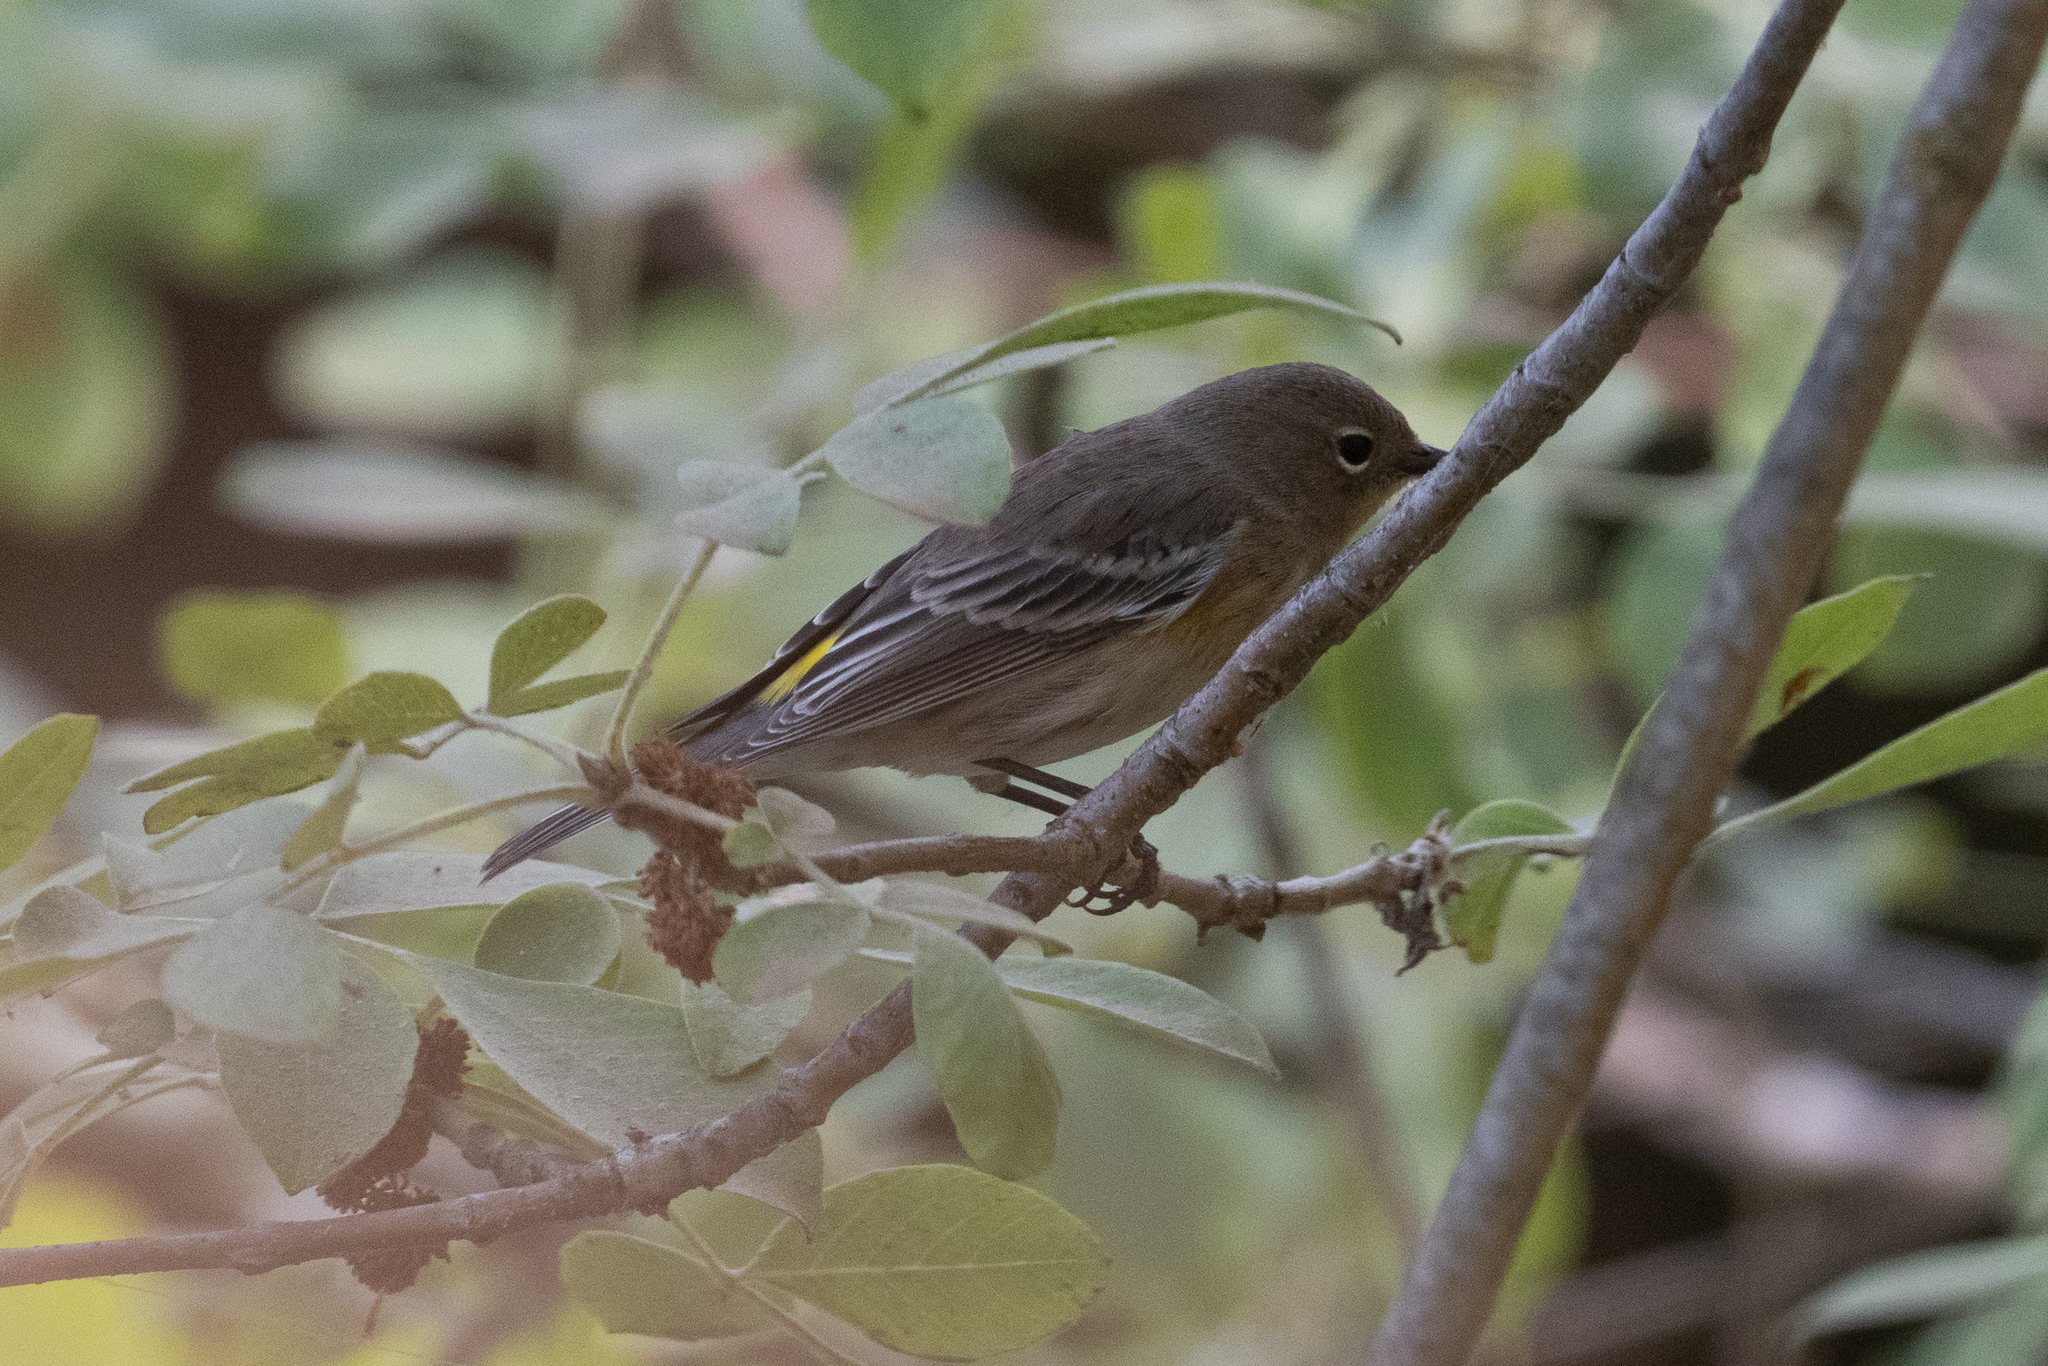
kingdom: Animalia
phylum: Chordata
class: Aves
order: Passeriformes
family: Parulidae
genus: Setophaga
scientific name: Setophaga coronata
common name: Myrtle warbler
